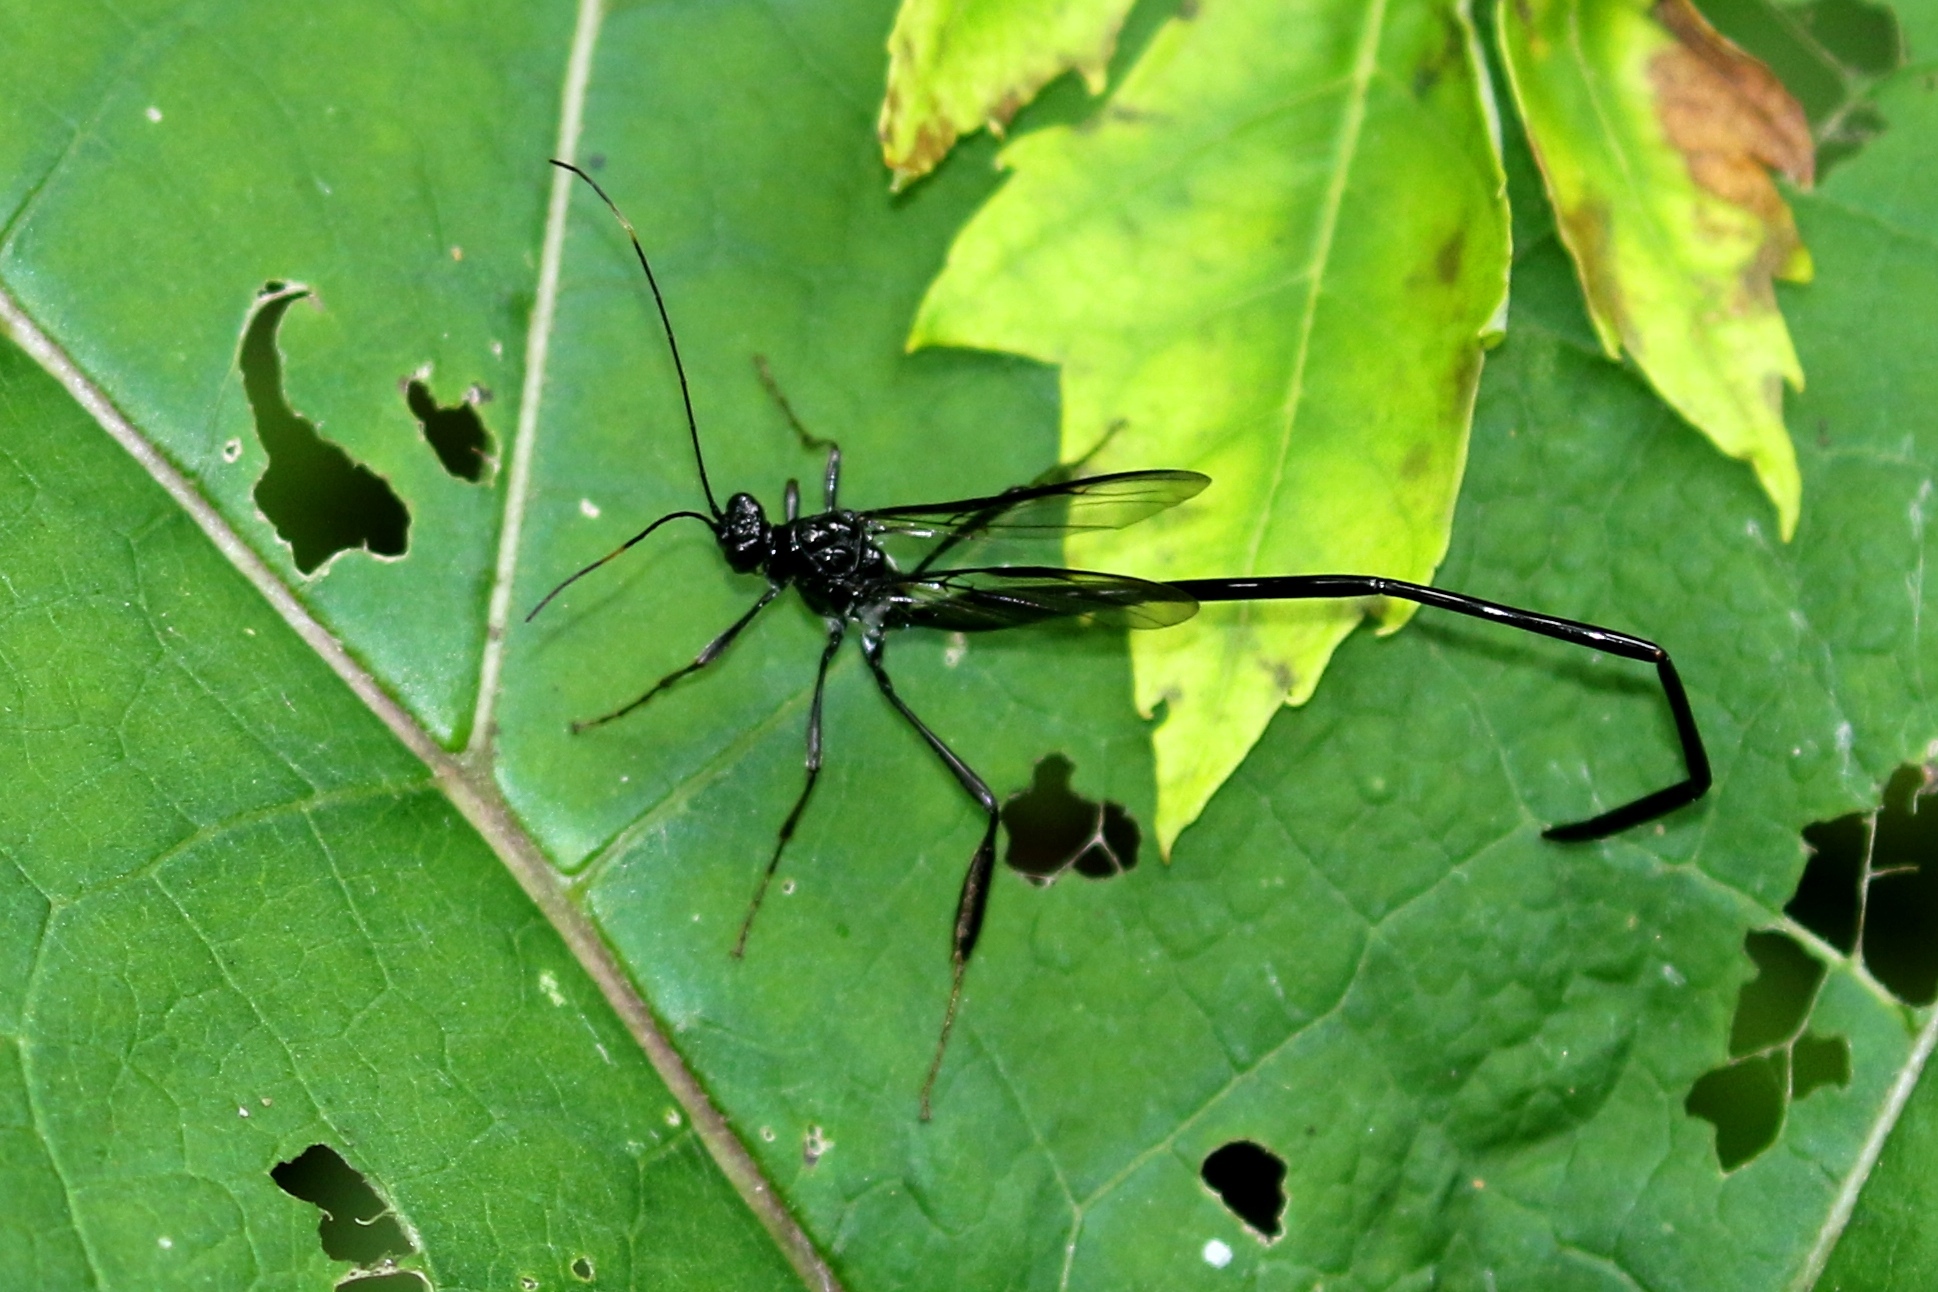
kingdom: Animalia
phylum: Arthropoda
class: Insecta
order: Hymenoptera
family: Pelecinidae
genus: Pelecinus
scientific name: Pelecinus polyturator
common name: American pelecinid wasp
